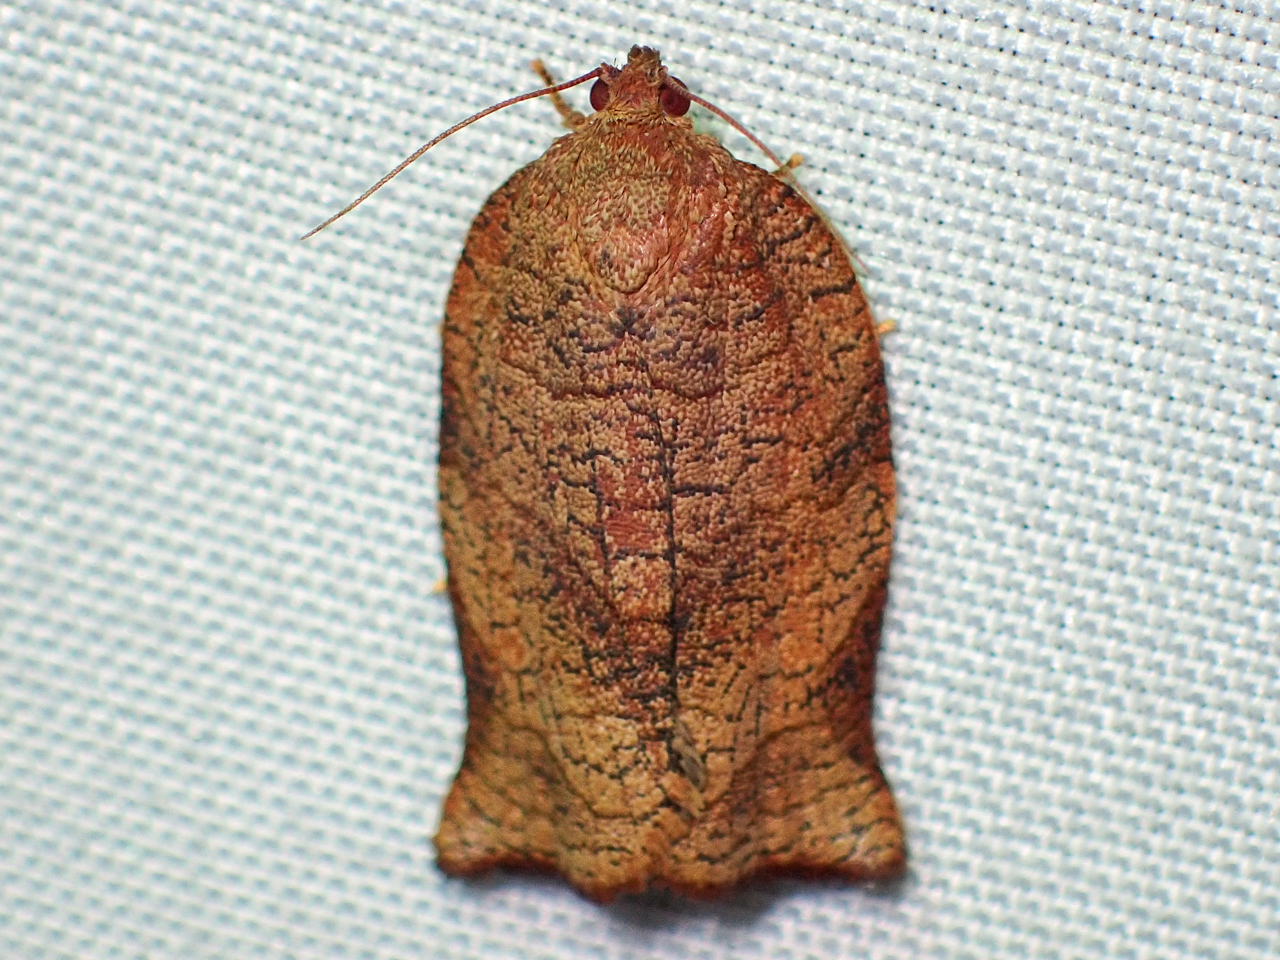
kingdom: Animalia
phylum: Arthropoda
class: Insecta
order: Lepidoptera
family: Tortricidae
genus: Choristoneura
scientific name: Choristoneura rosaceana
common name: Oblique-banded leafroller moth
